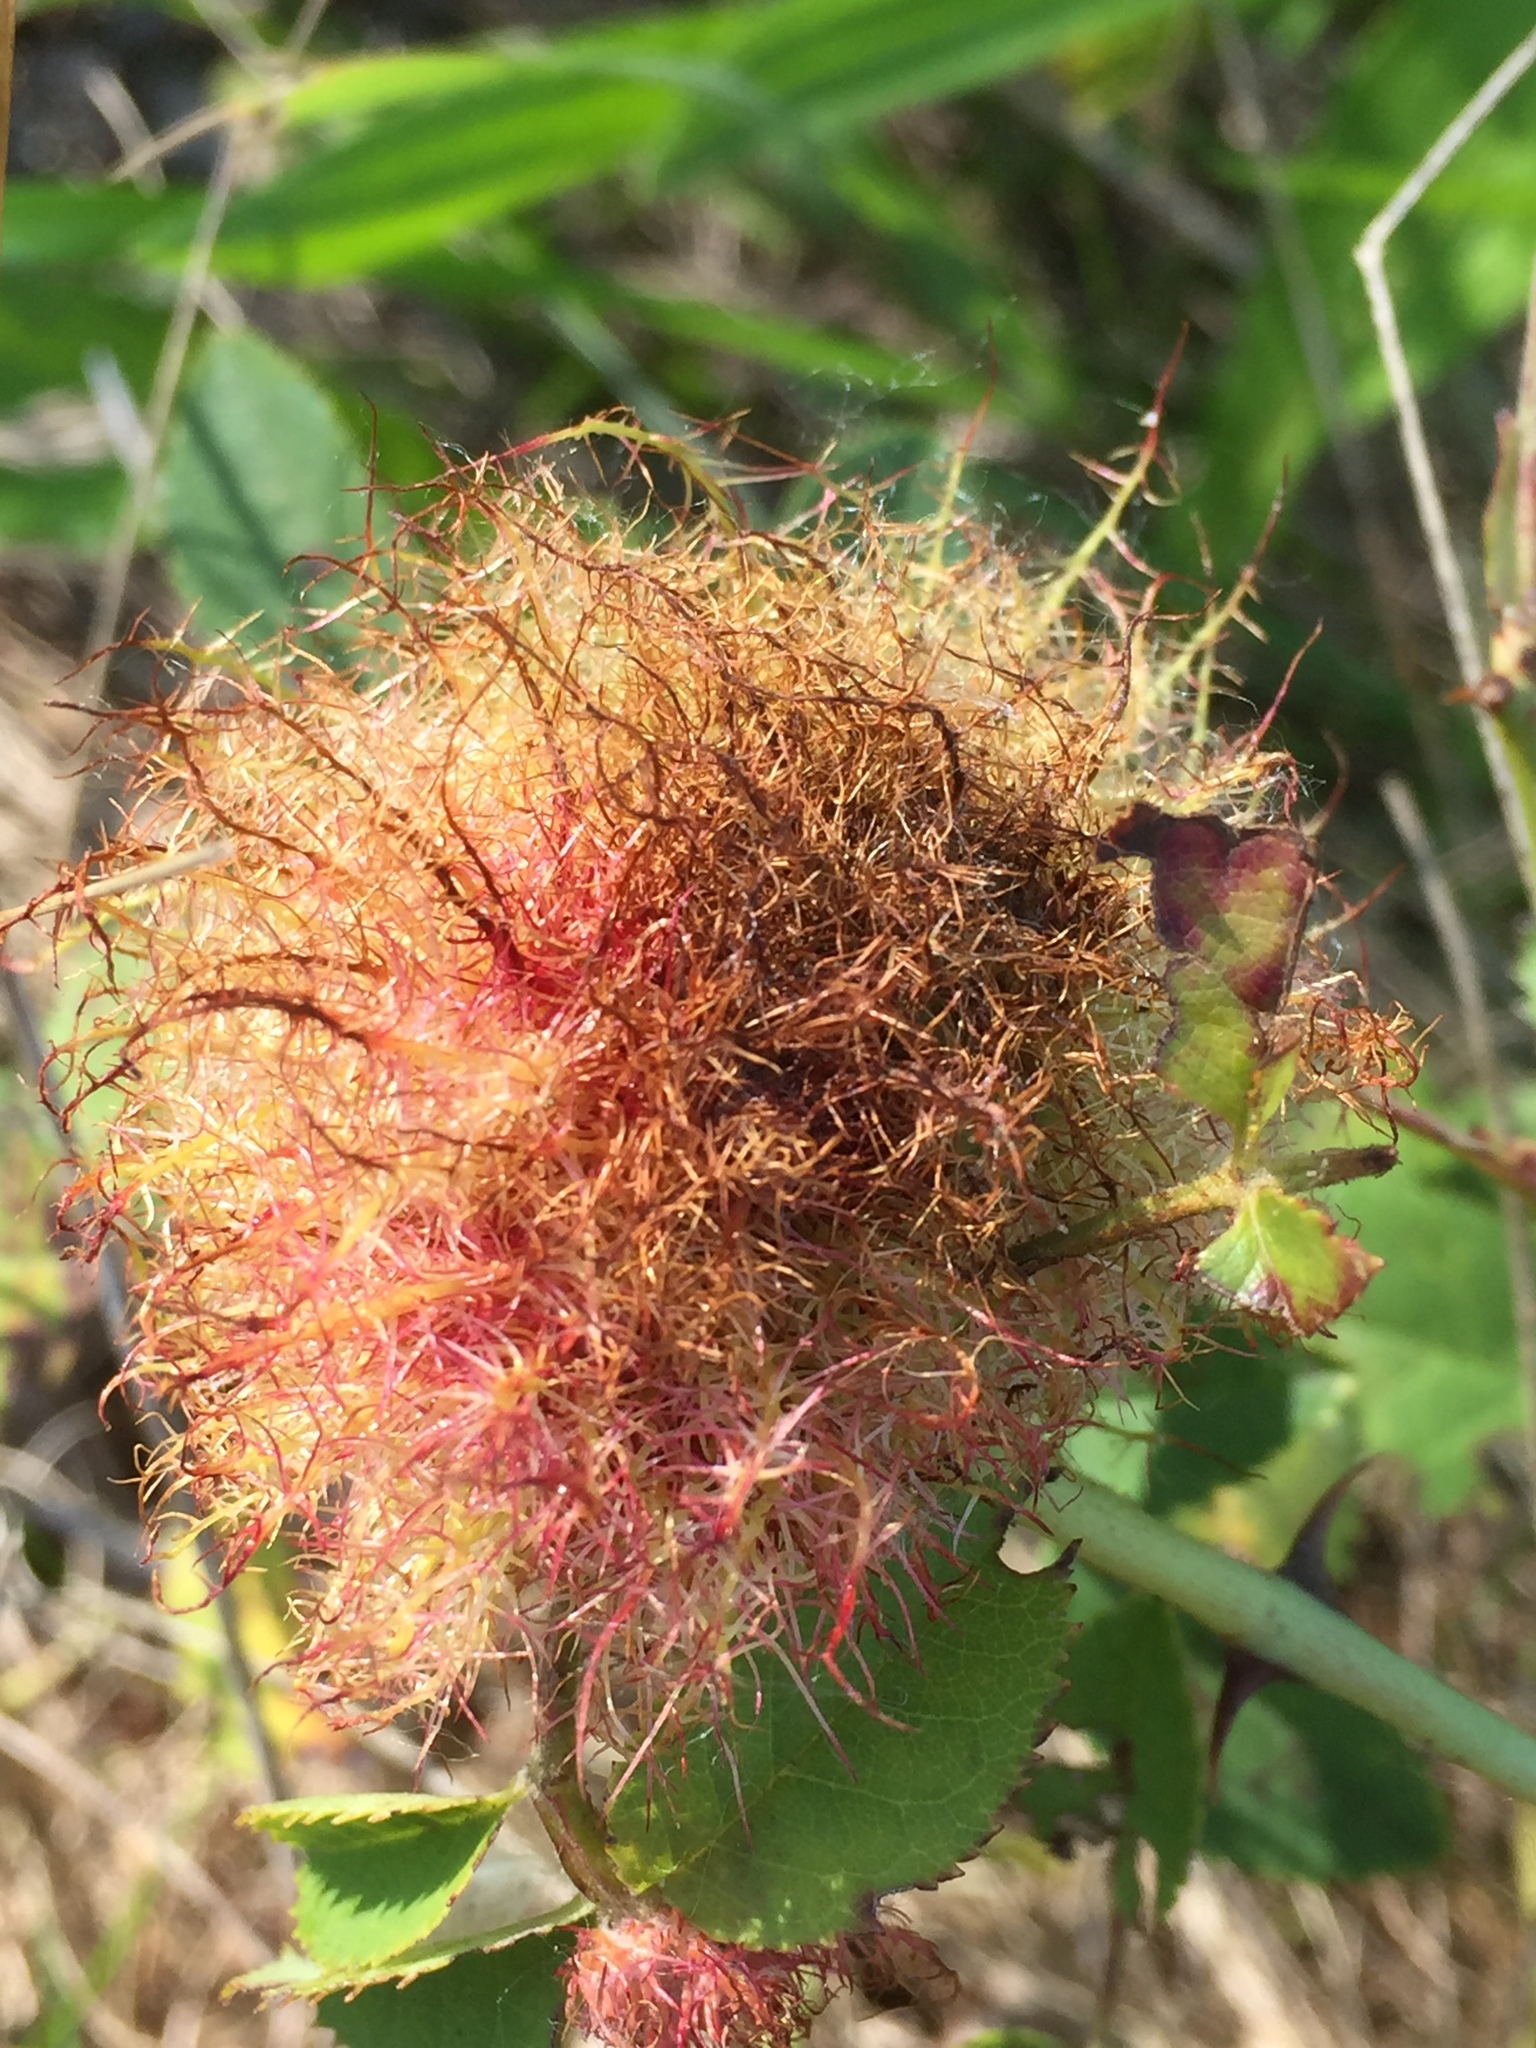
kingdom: Animalia
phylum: Arthropoda
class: Insecta
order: Hymenoptera
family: Cynipidae
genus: Diplolepis
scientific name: Diplolepis rosae
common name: Bedeguar gall
